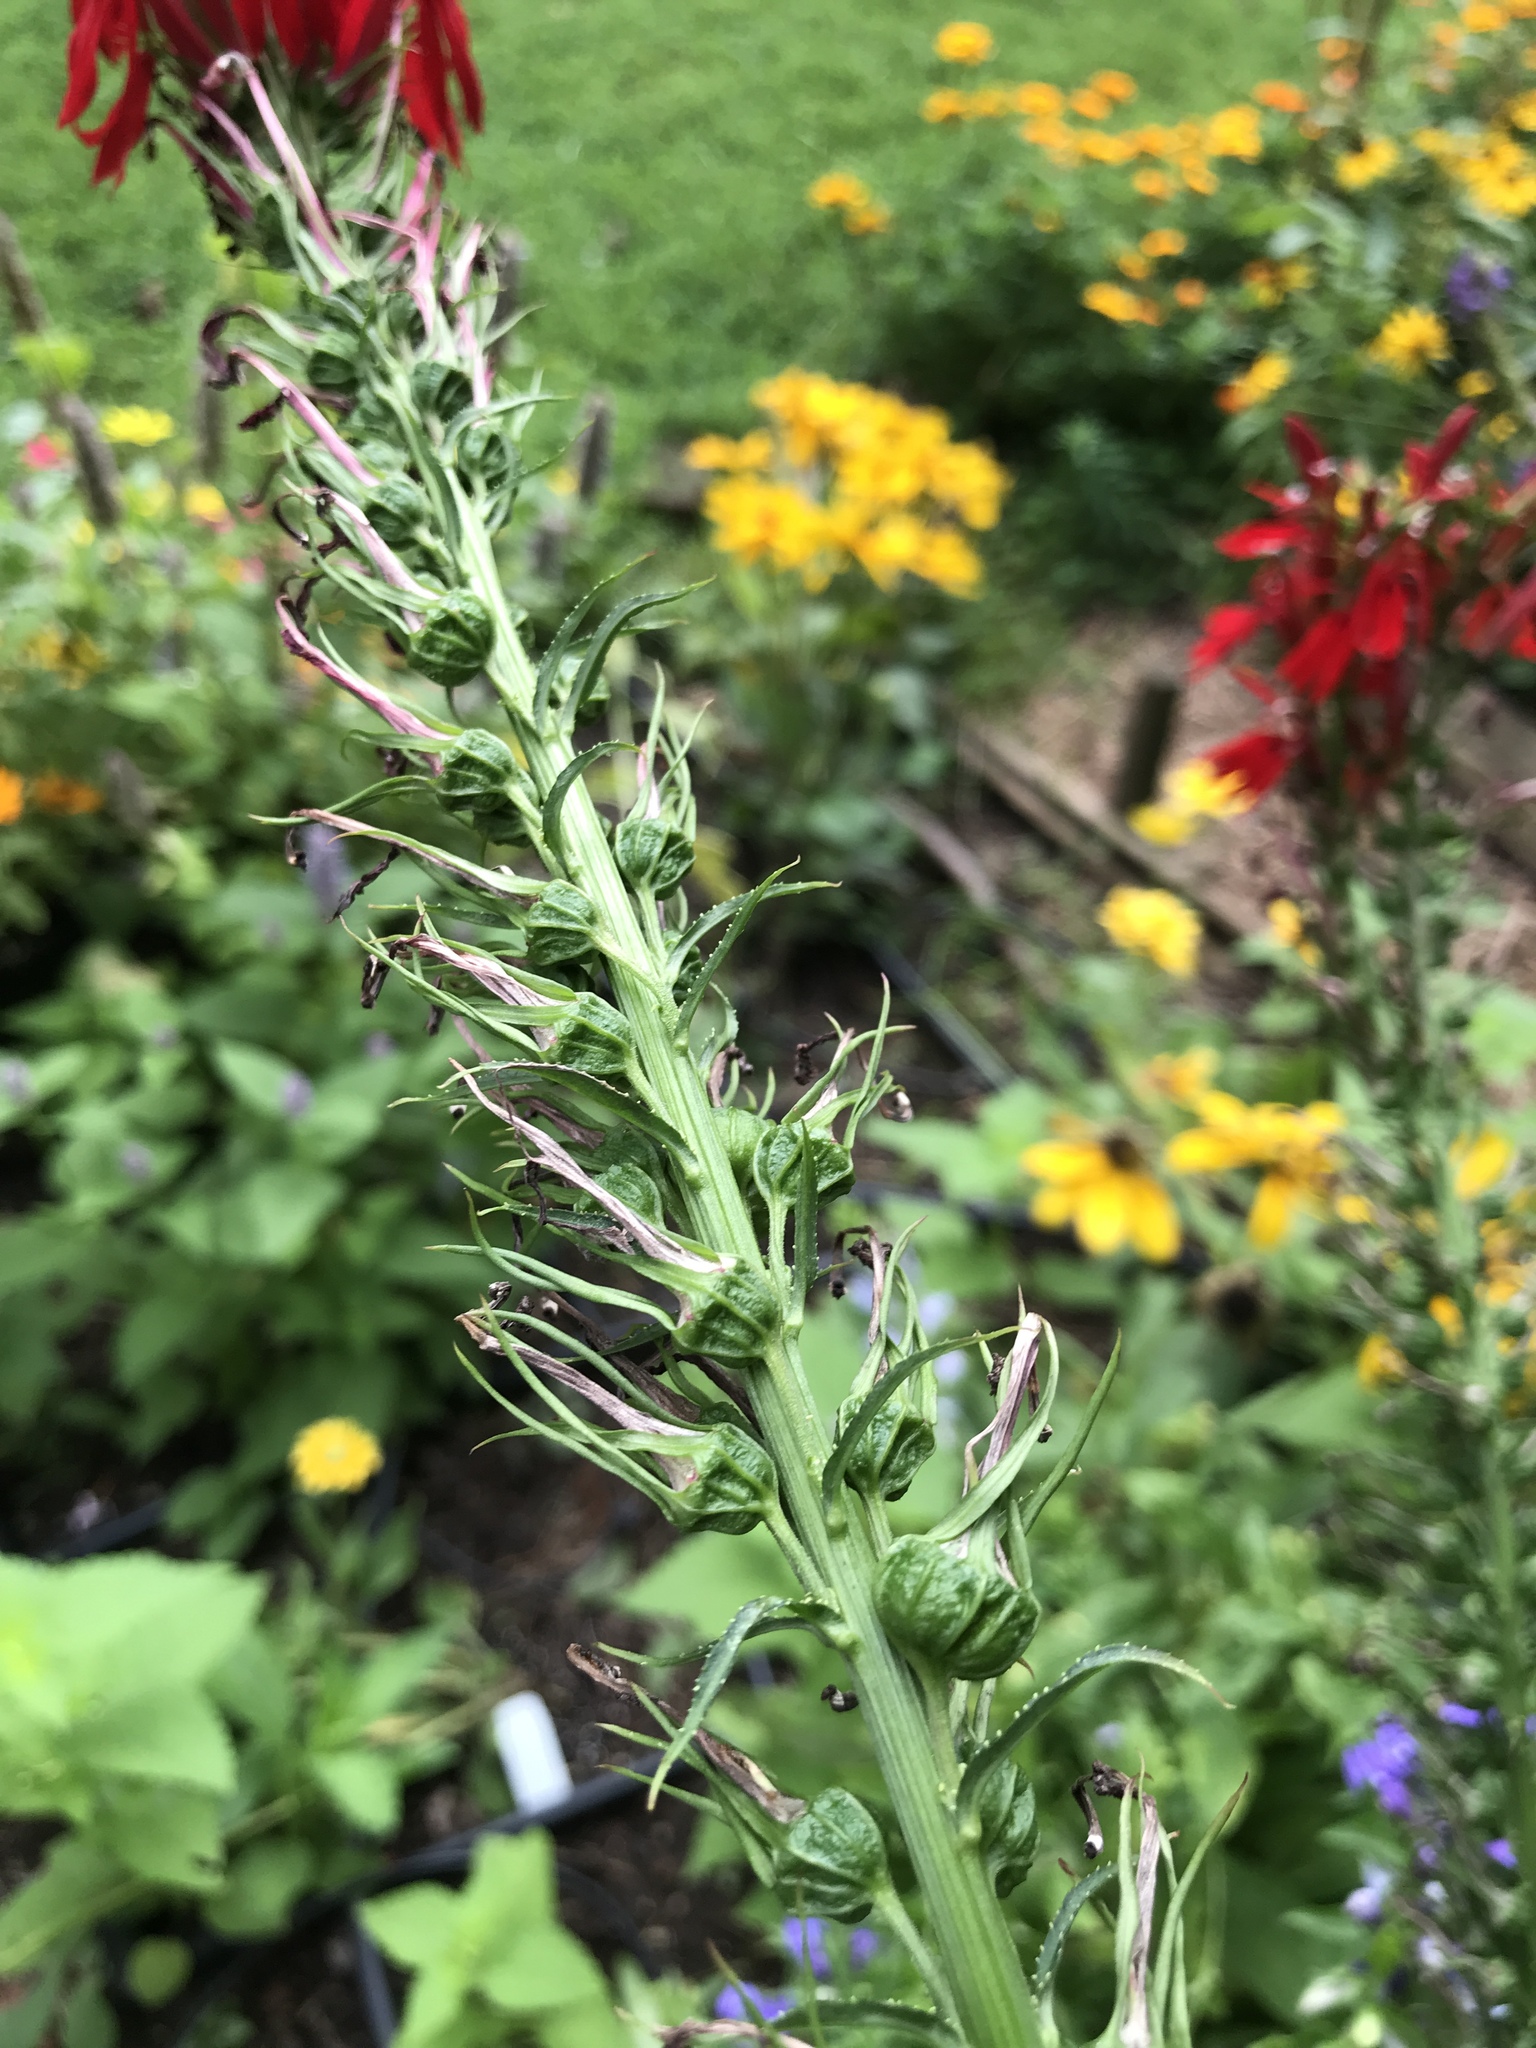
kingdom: Plantae
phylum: Tracheophyta
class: Magnoliopsida
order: Asterales
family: Campanulaceae
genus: Lobelia
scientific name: Lobelia cardinalis
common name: Cardinal flower
